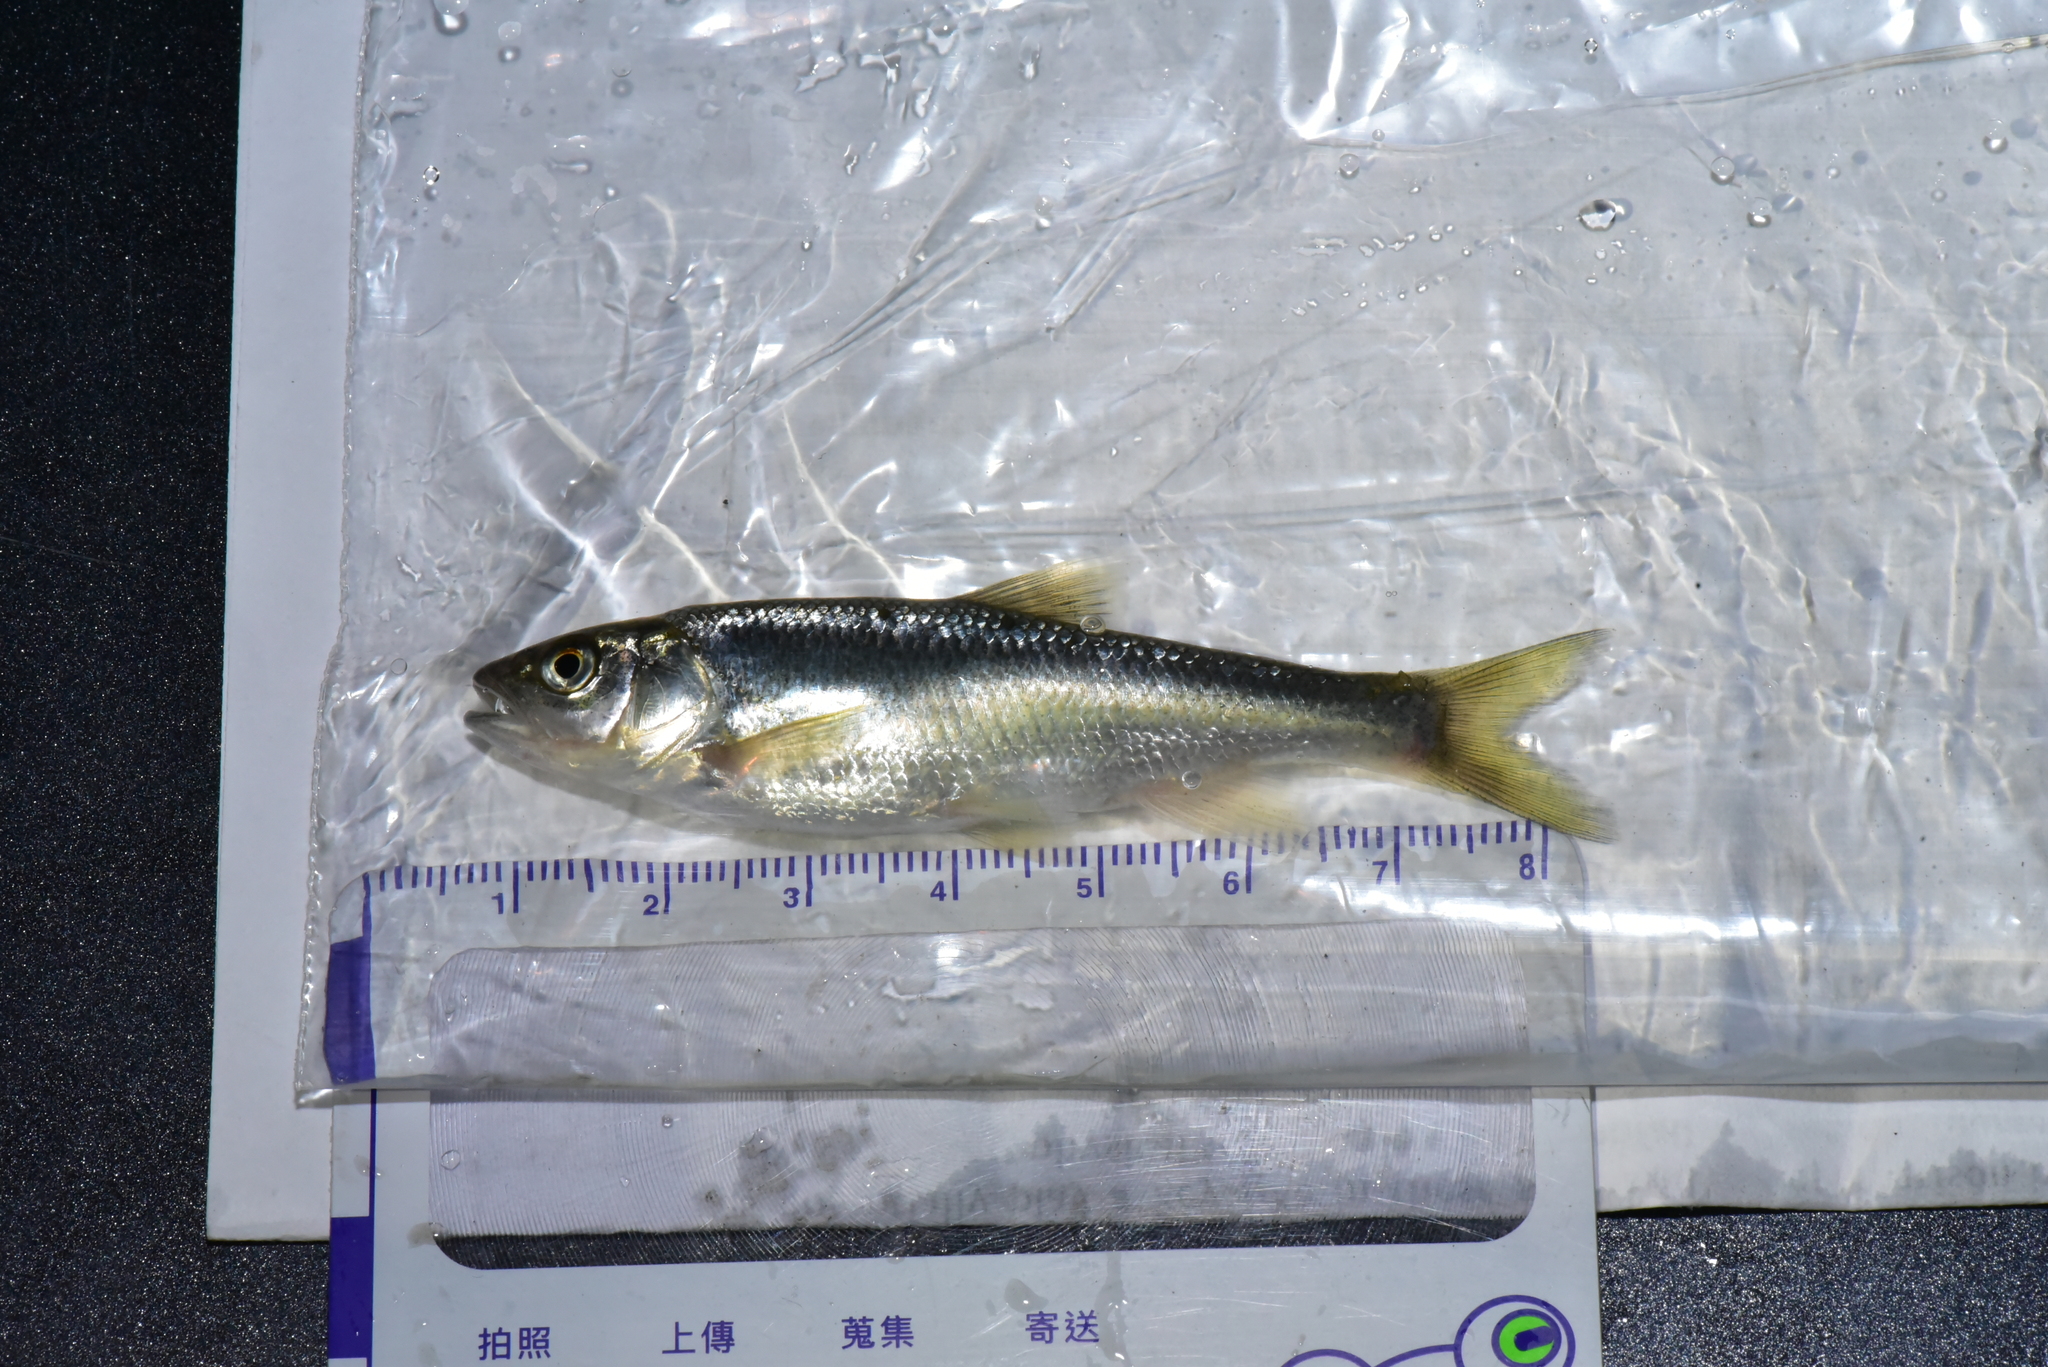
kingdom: Animalia
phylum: Chordata
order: Cypriniformes
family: Cyprinidae
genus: Opsariichthys
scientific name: Opsariichthys pachycephalus
